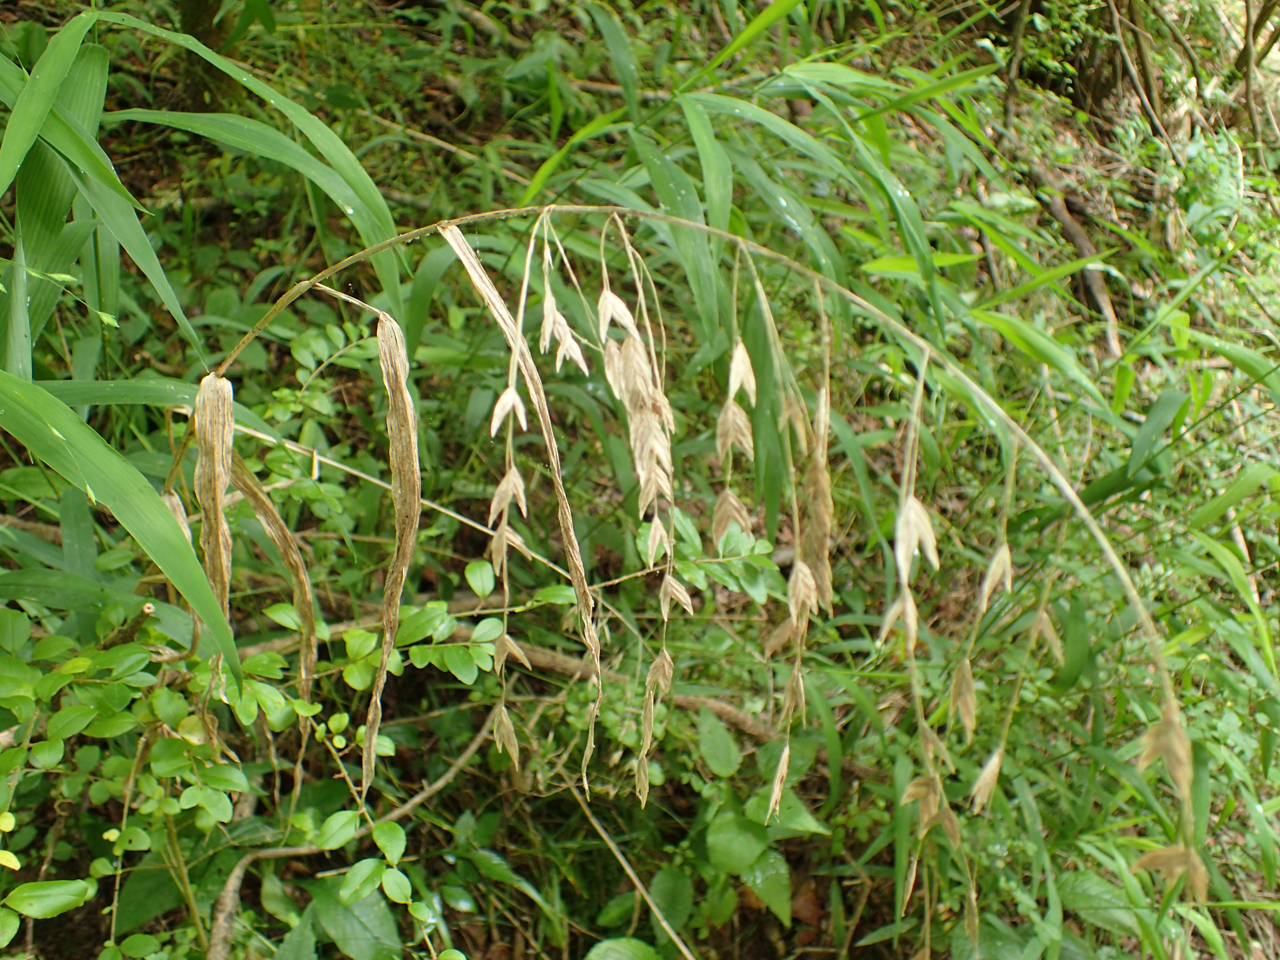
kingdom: Plantae
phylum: Tracheophyta
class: Liliopsida
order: Poales
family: Poaceae
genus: Chasmanthium
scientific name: Chasmanthium latifolium
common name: Broad-leaved chasmanthium
